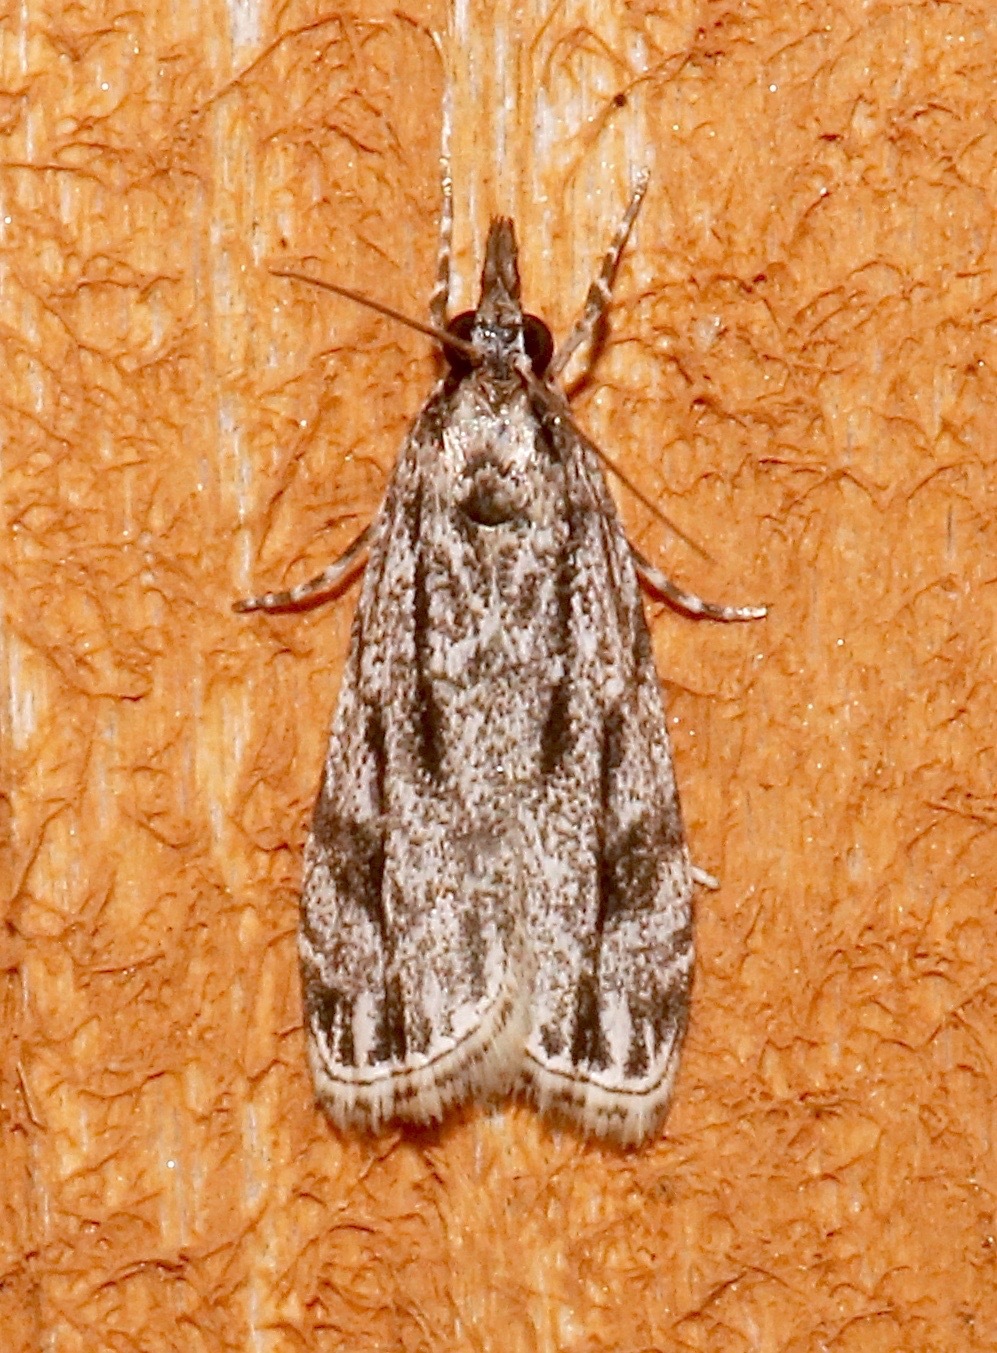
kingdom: Animalia
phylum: Arthropoda
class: Insecta
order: Lepidoptera
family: Crambidae
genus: Eudonia
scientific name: Eudonia strigalis
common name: Striped eudonia moth
